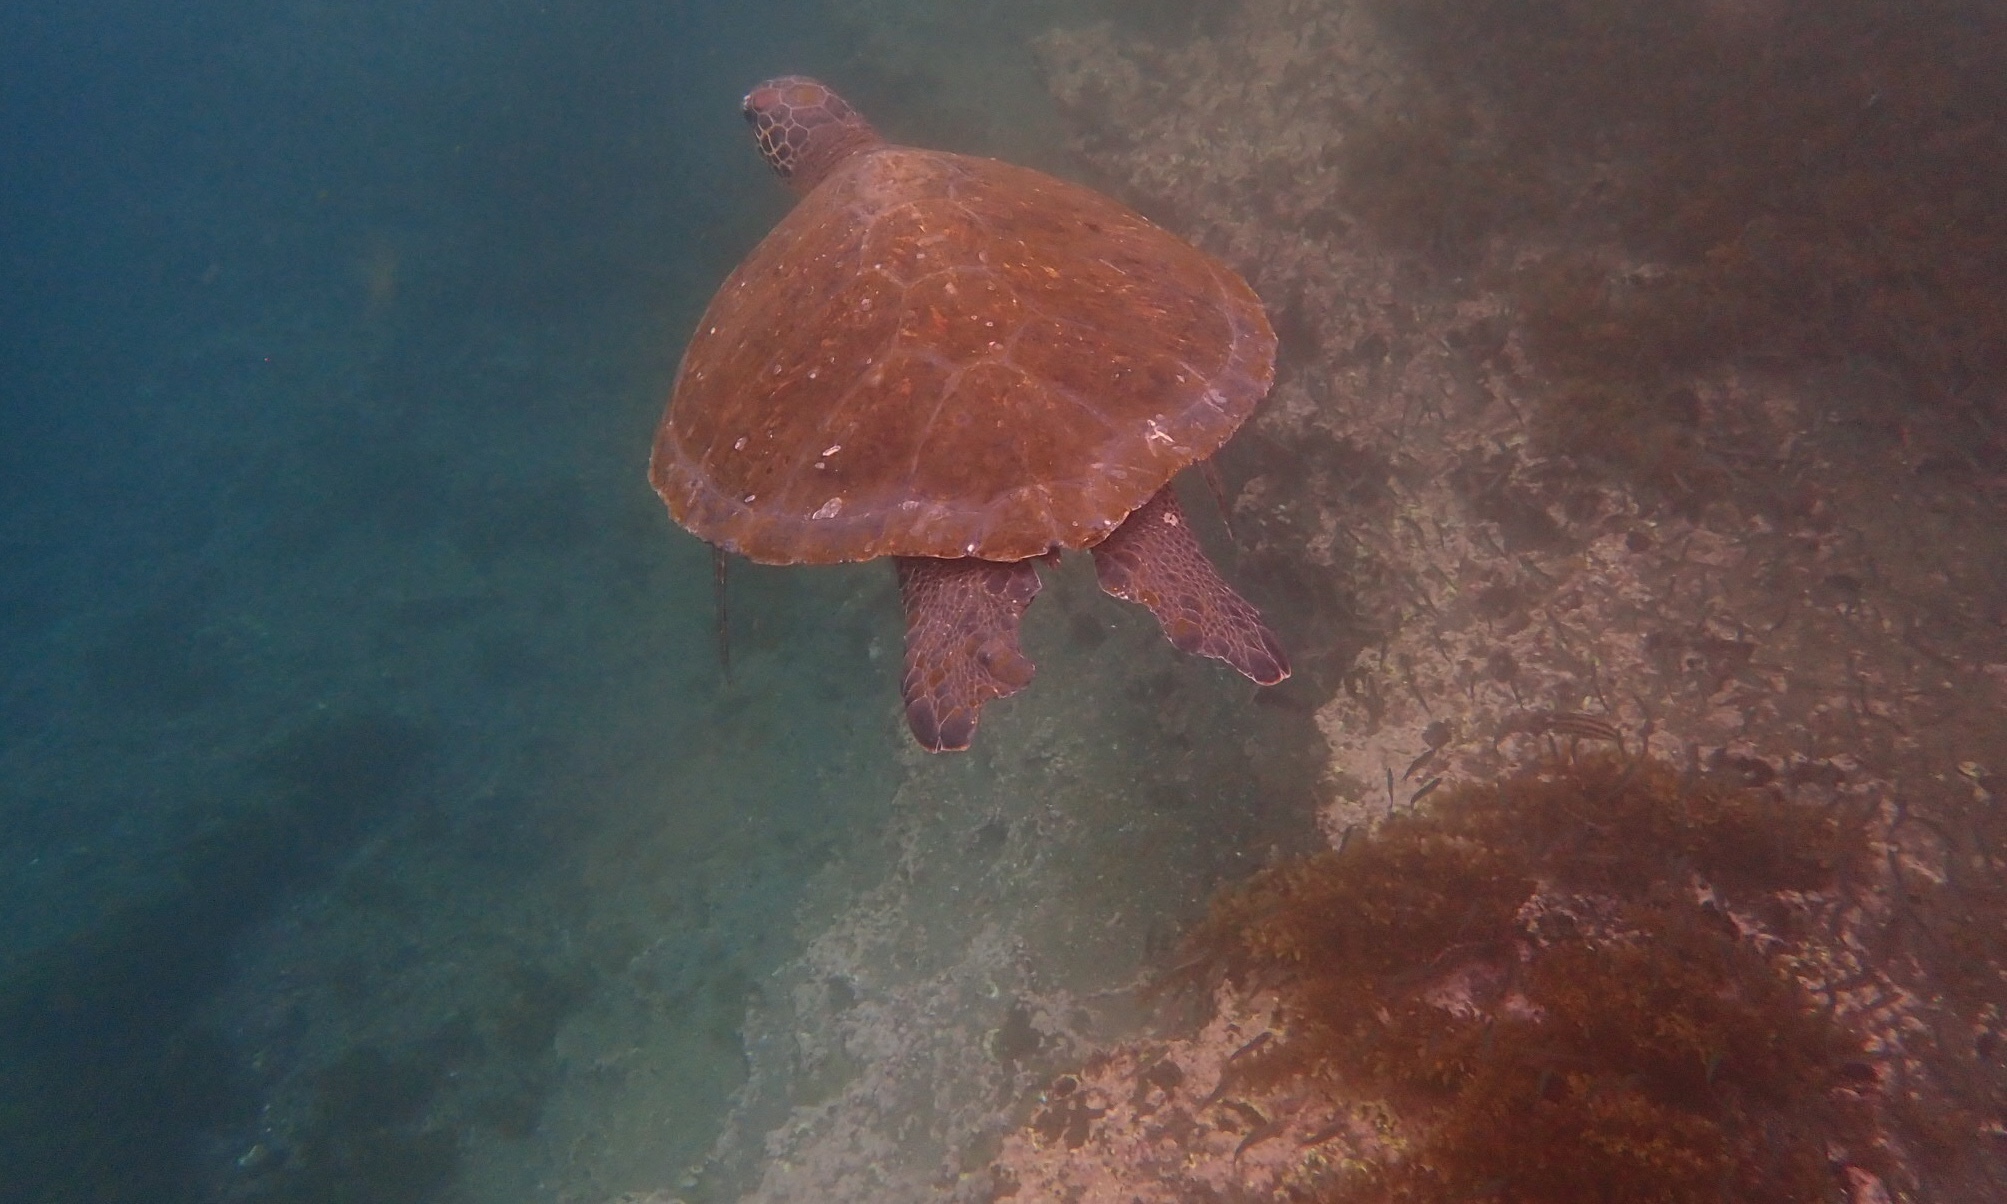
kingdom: Animalia
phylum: Chordata
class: Testudines
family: Cheloniidae
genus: Chelonia
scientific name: Chelonia mydas
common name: Green turtle
